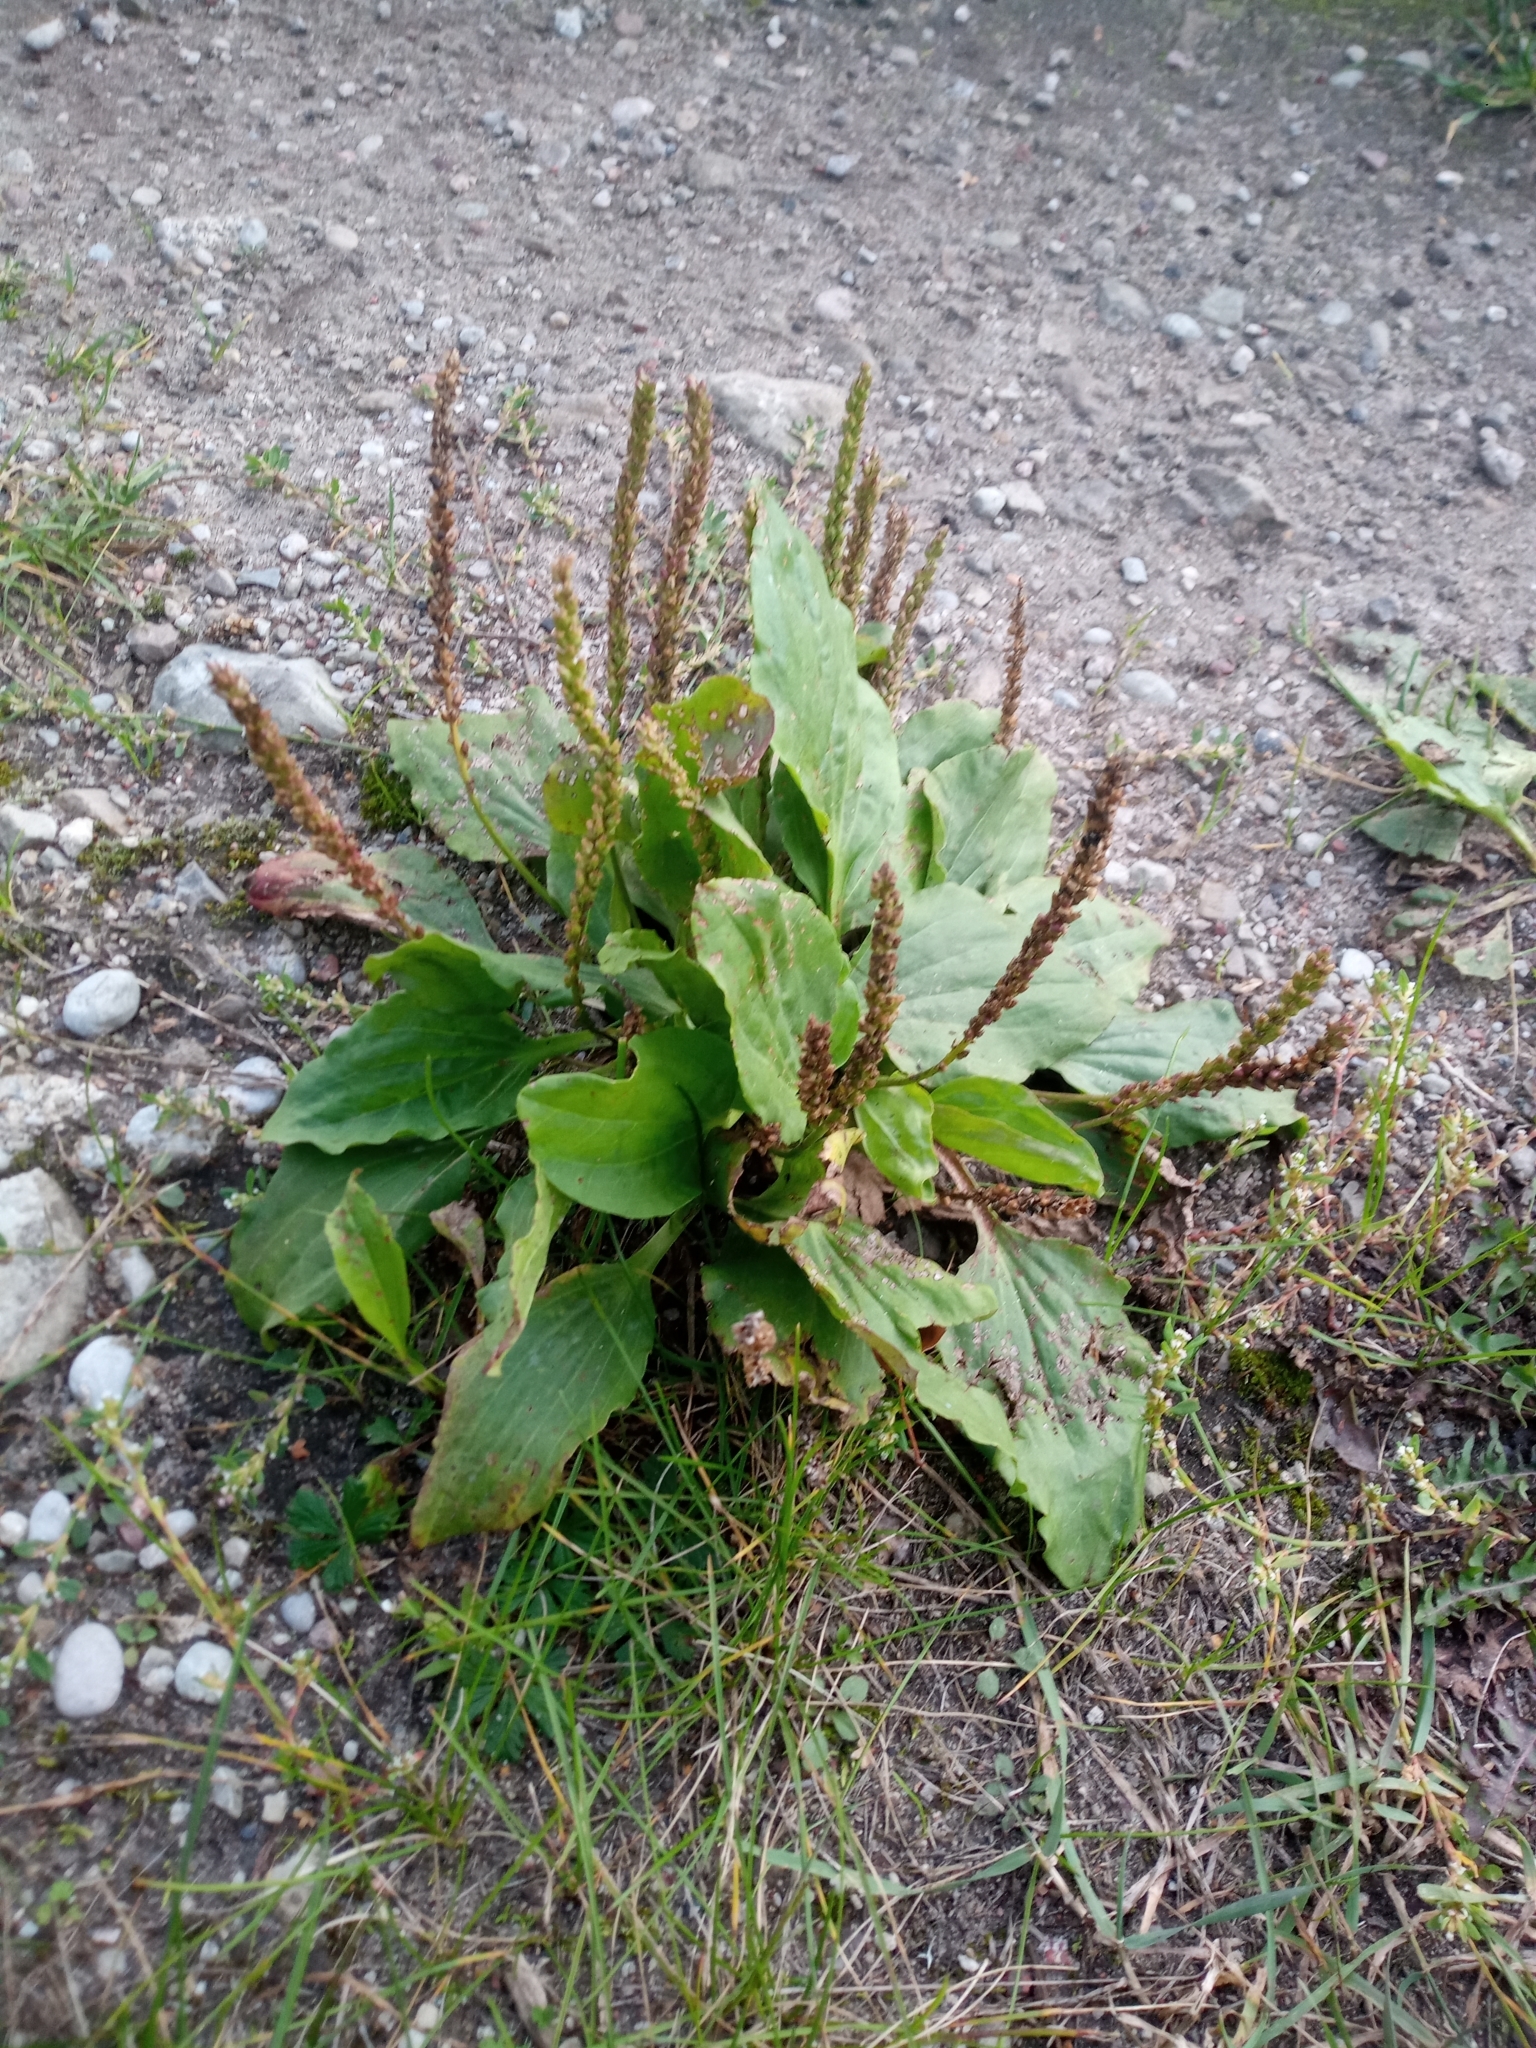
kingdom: Plantae
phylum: Tracheophyta
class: Magnoliopsida
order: Lamiales
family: Plantaginaceae
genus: Plantago
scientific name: Plantago major
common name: Common plantain
